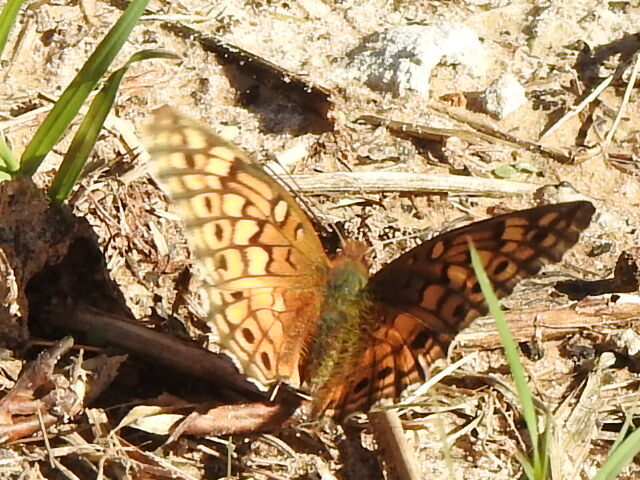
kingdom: Animalia
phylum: Arthropoda
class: Insecta
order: Lepidoptera
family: Nymphalidae
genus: Euptoieta
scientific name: Euptoieta claudia
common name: Variegated fritillary
